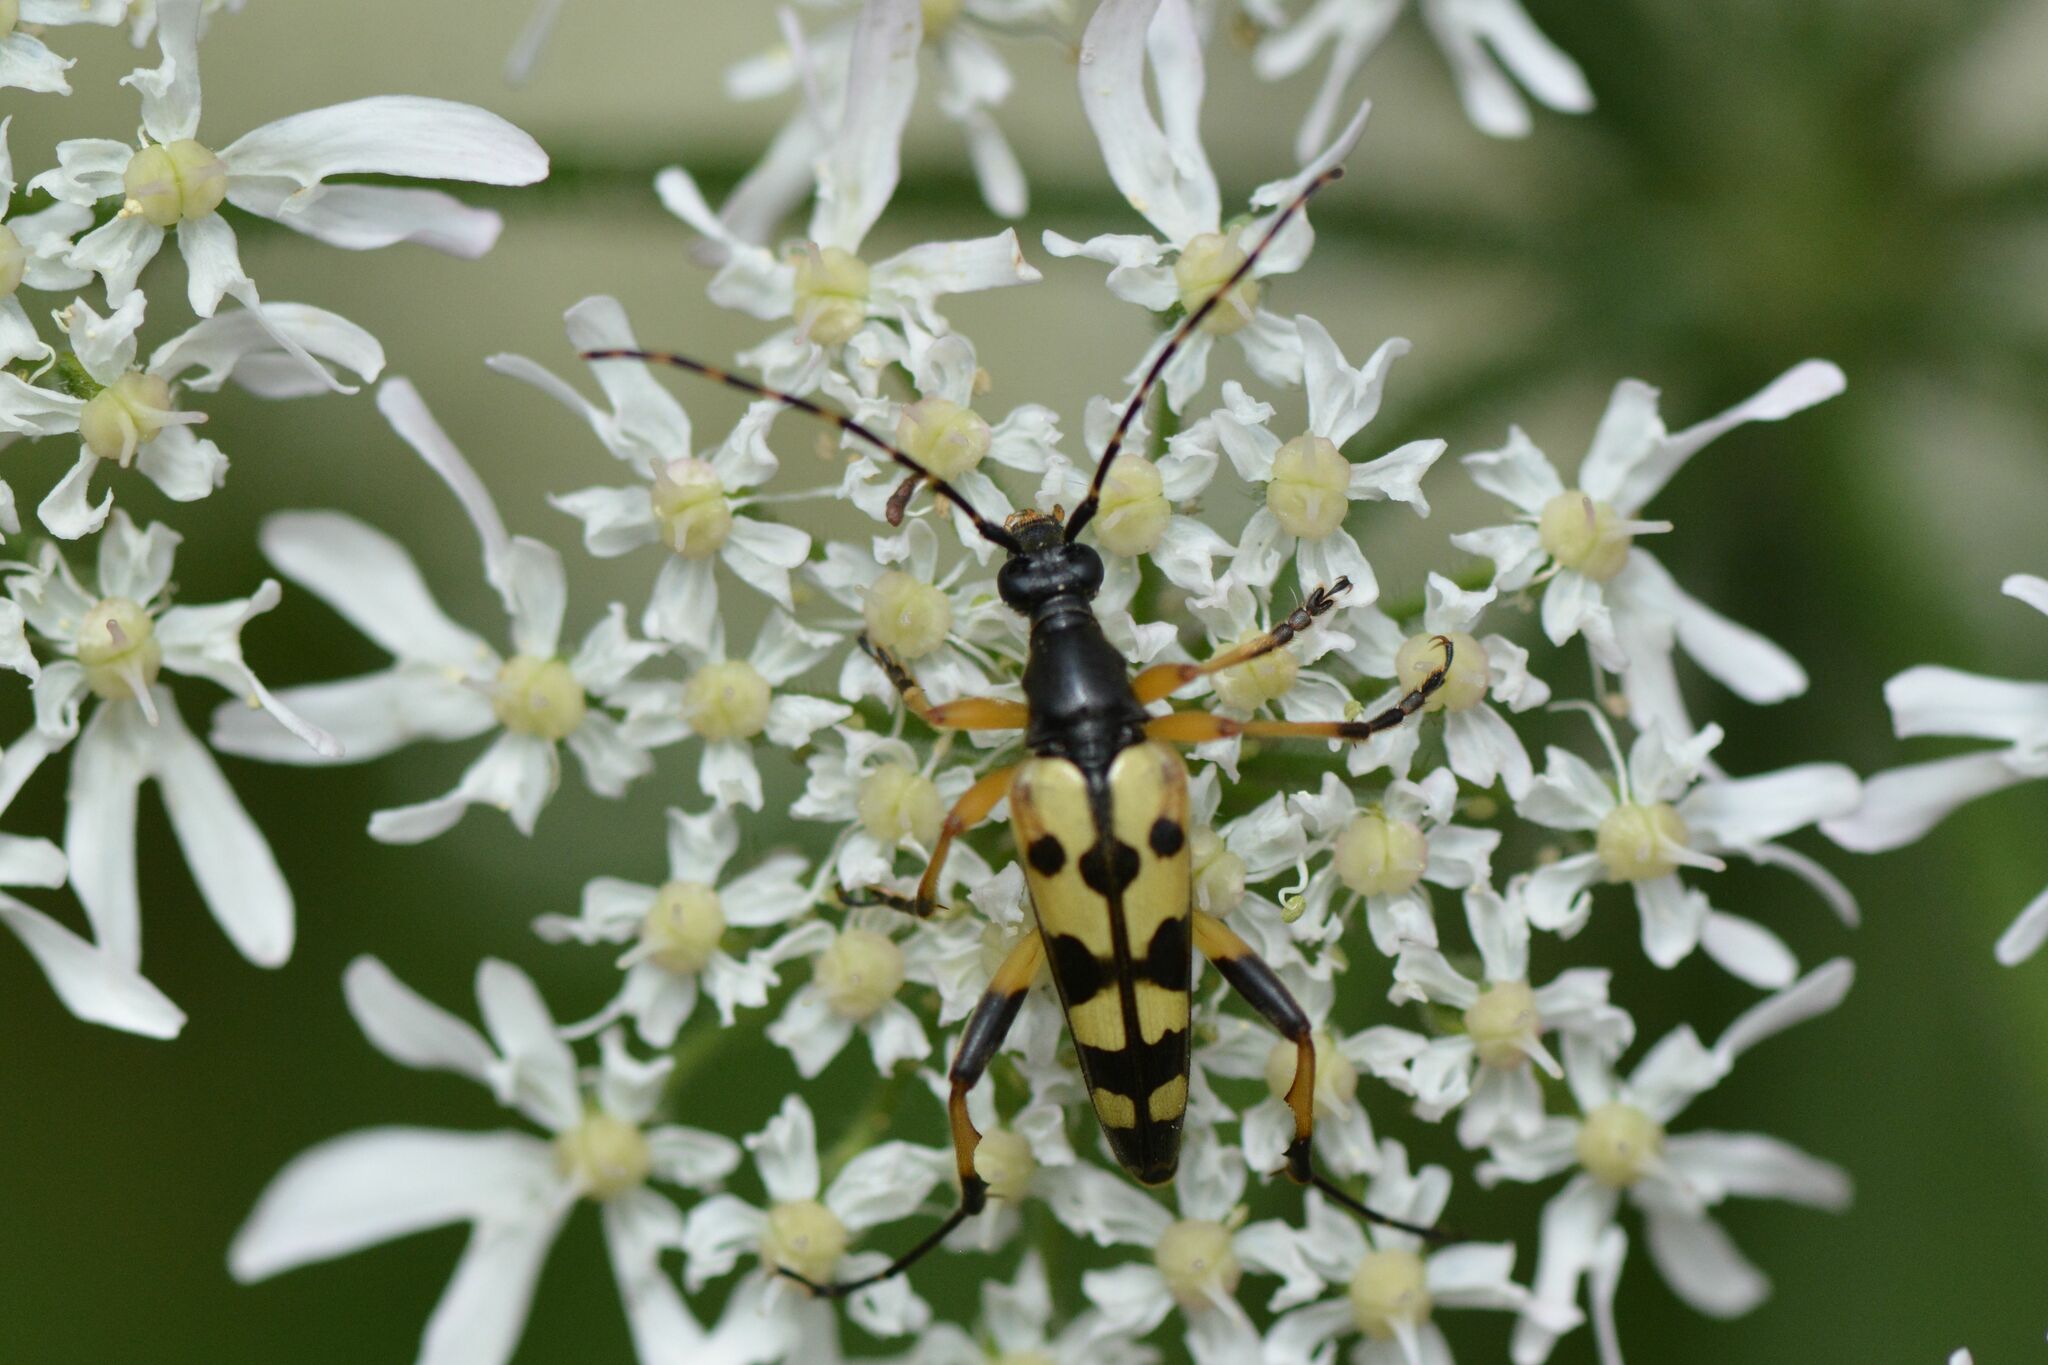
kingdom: Animalia
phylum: Arthropoda
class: Insecta
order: Coleoptera
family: Cerambycidae
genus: Rutpela
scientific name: Rutpela maculata
